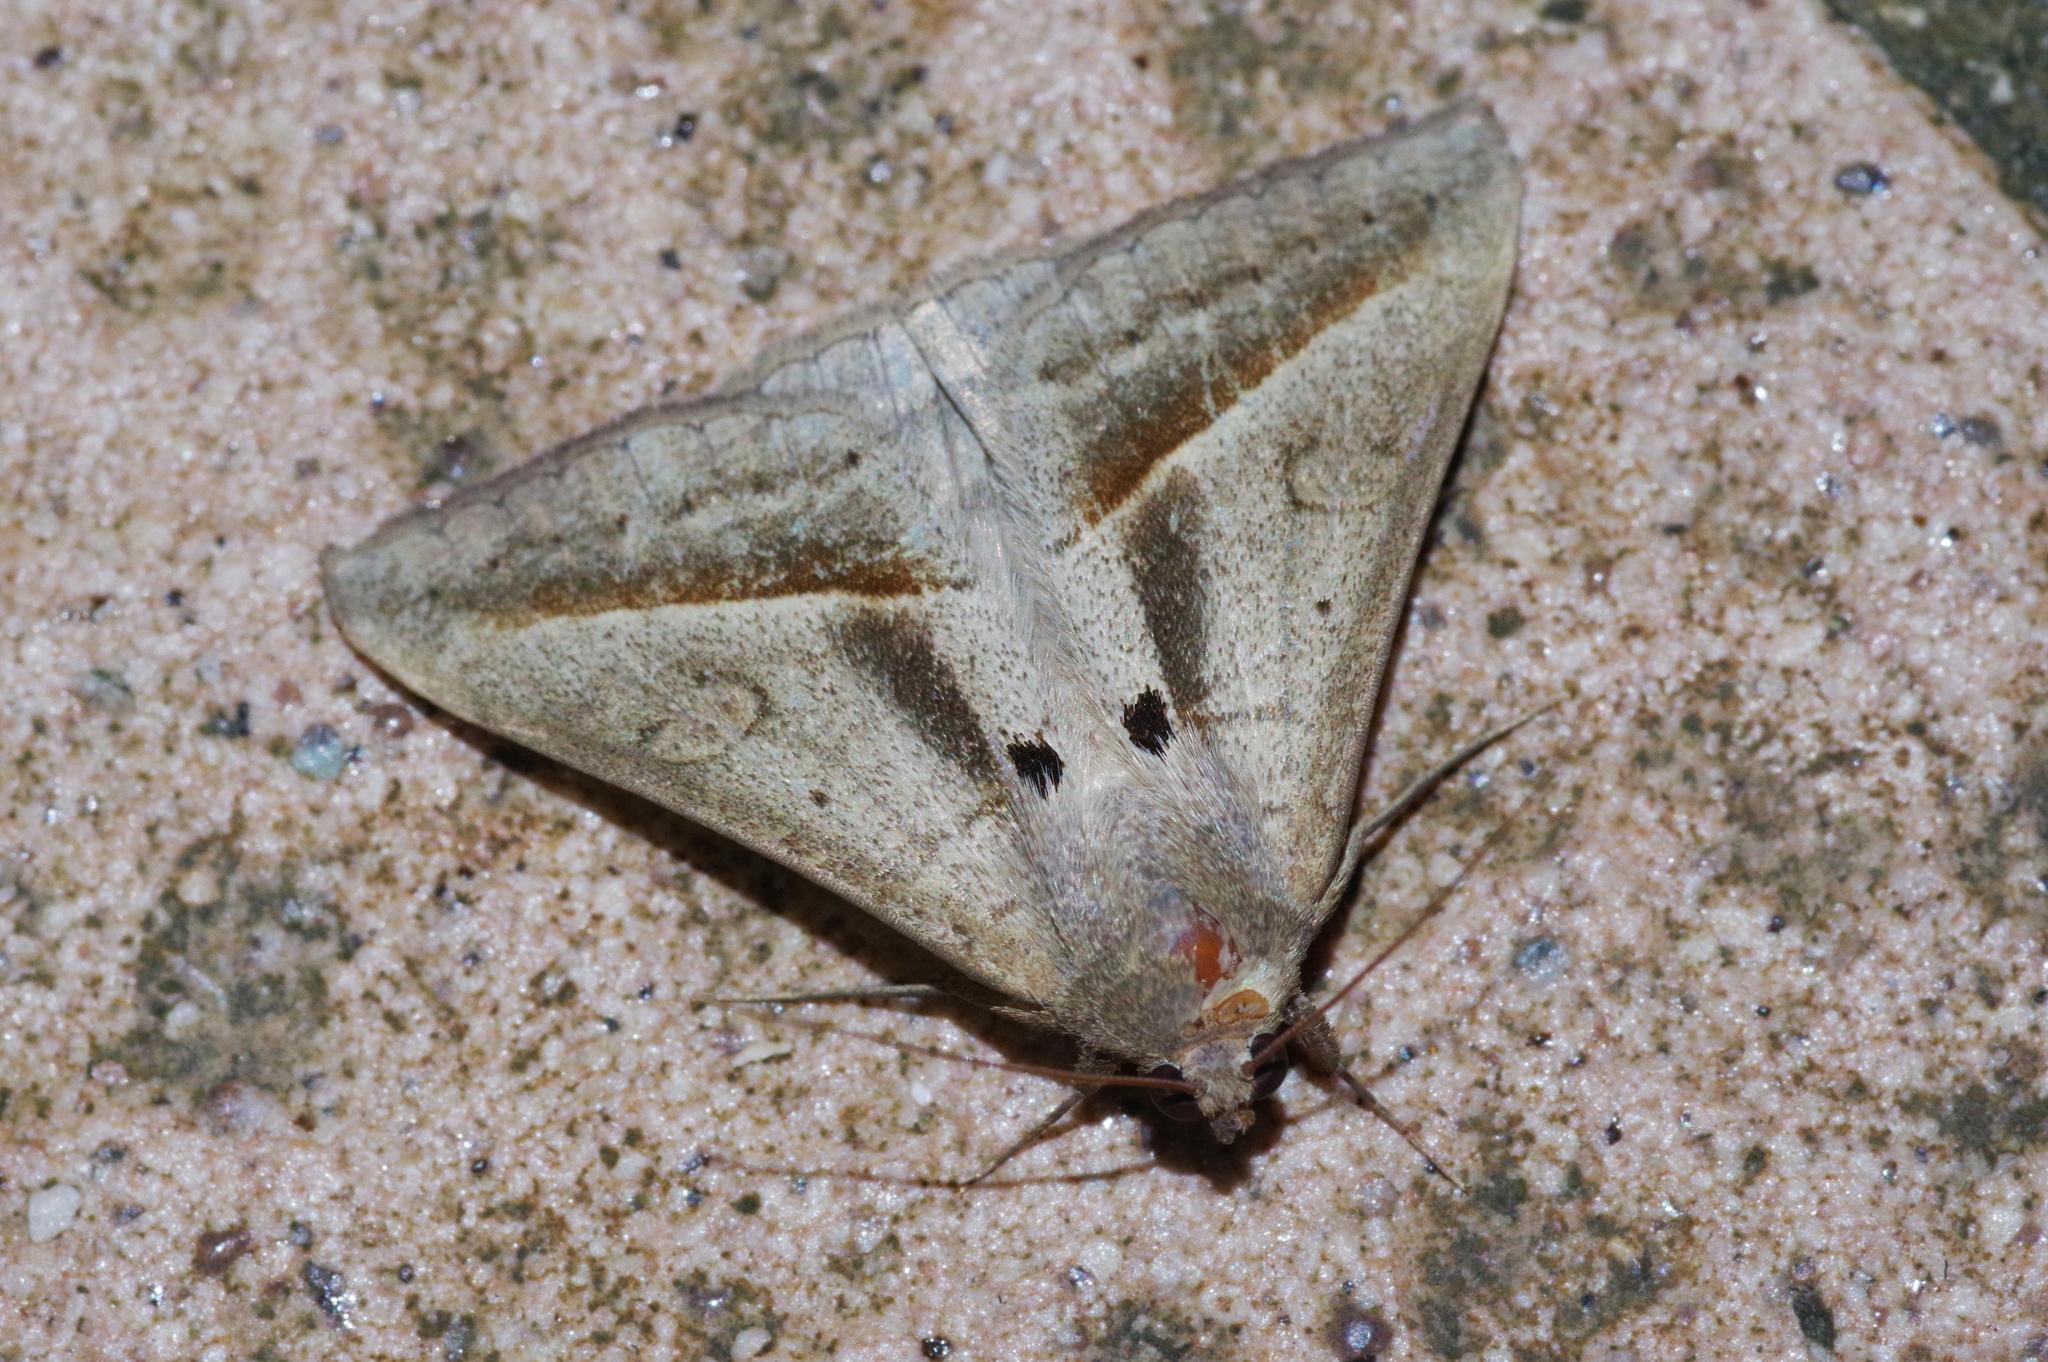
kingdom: Animalia
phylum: Arthropoda
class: Insecta
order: Lepidoptera
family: Erebidae
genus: Mocis
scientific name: Mocis frugalis
